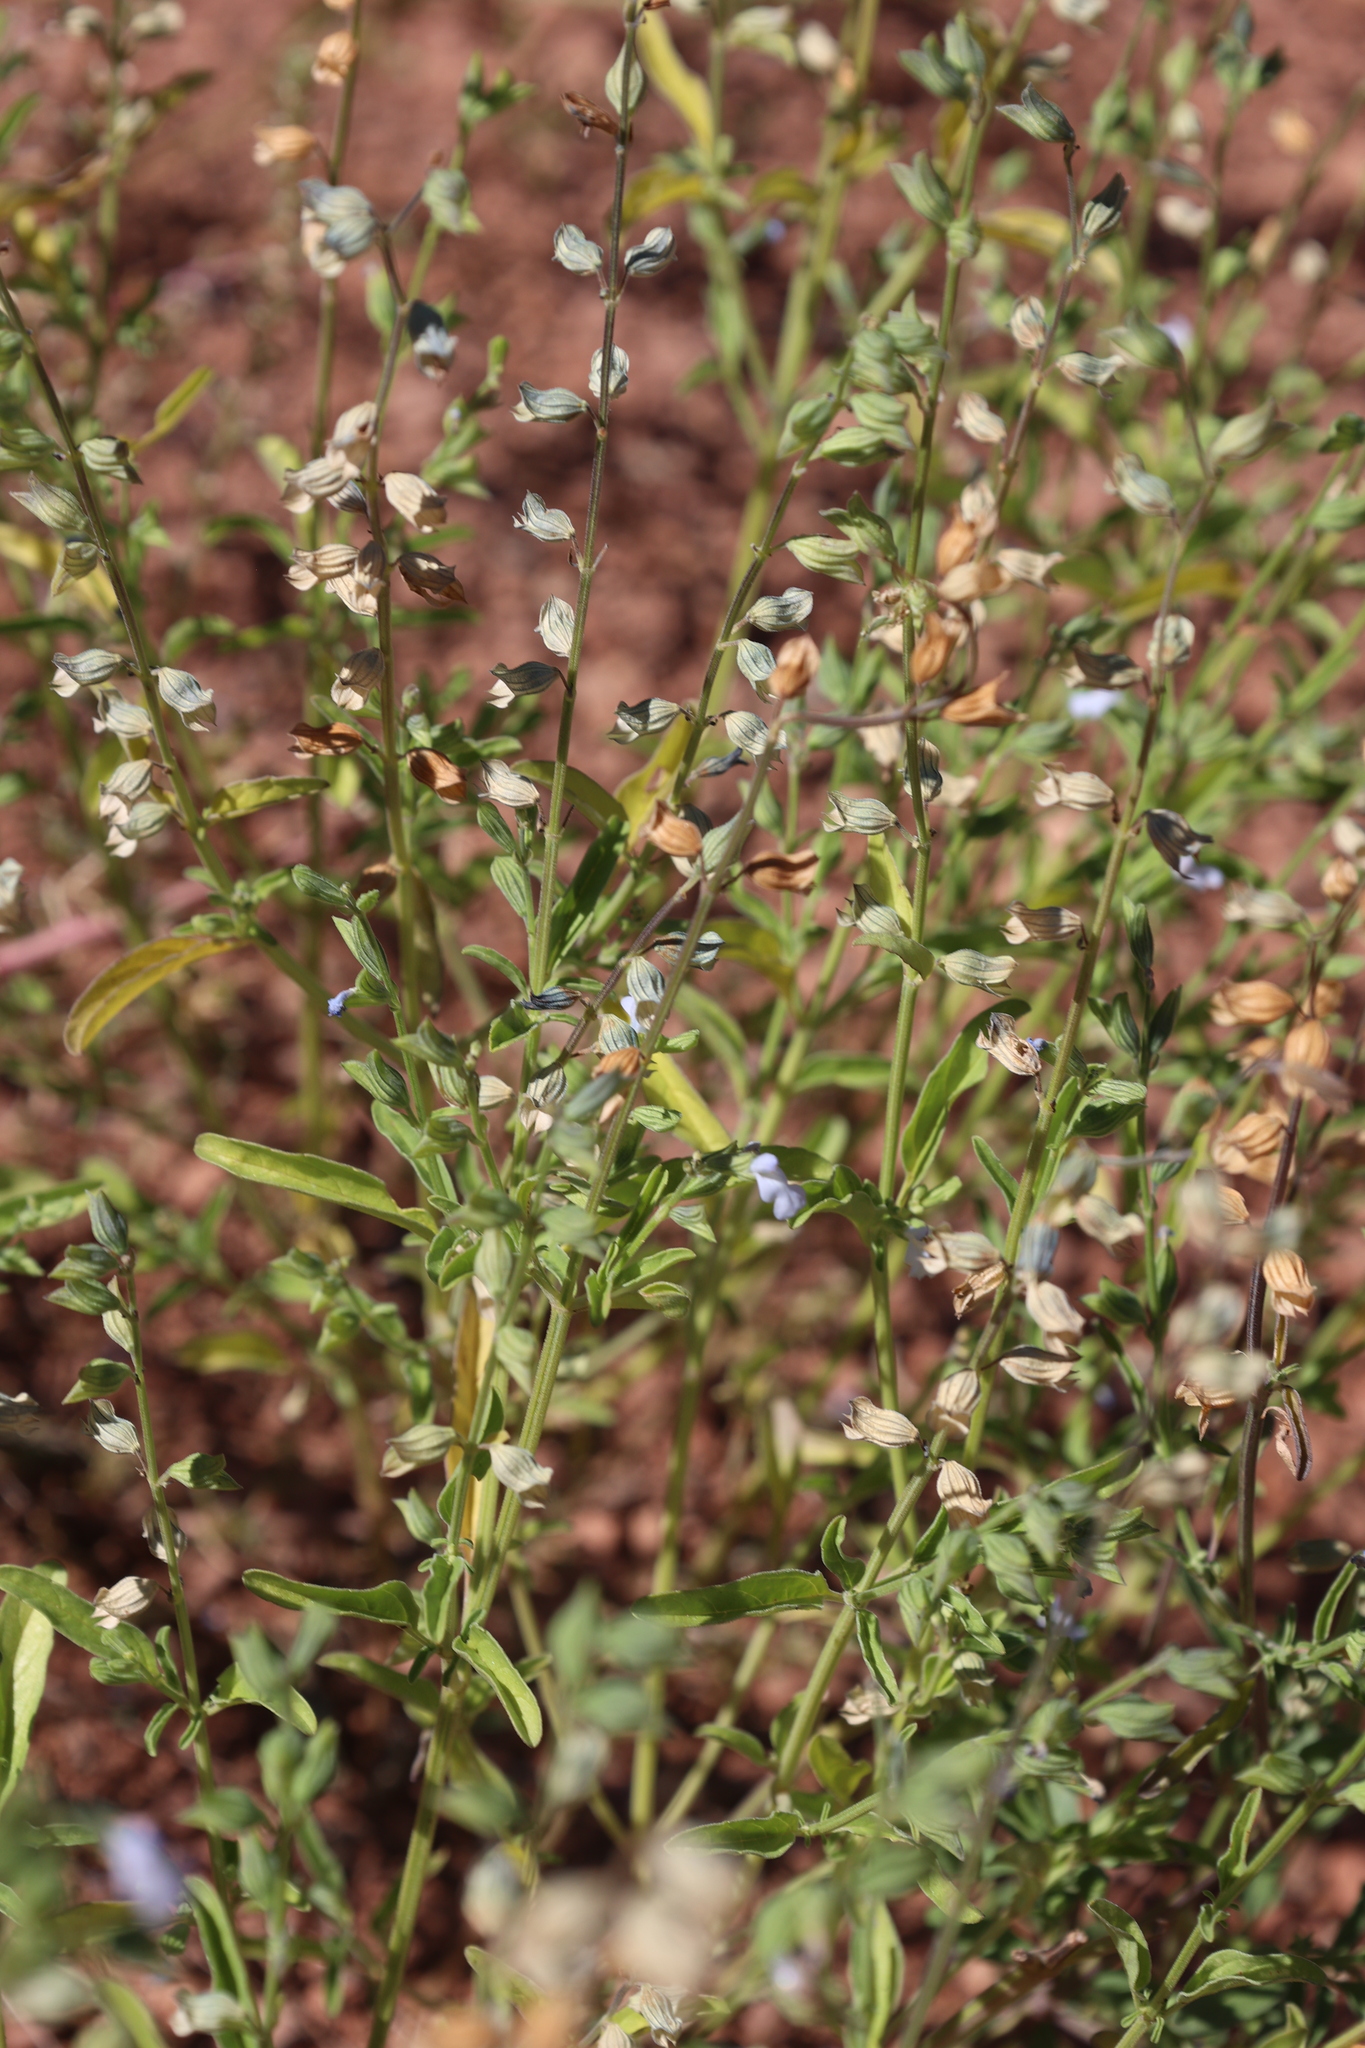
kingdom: Plantae
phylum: Tracheophyta
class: Magnoliopsida
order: Lamiales
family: Lamiaceae
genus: Salvia
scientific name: Salvia reflexa
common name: Mintweed
